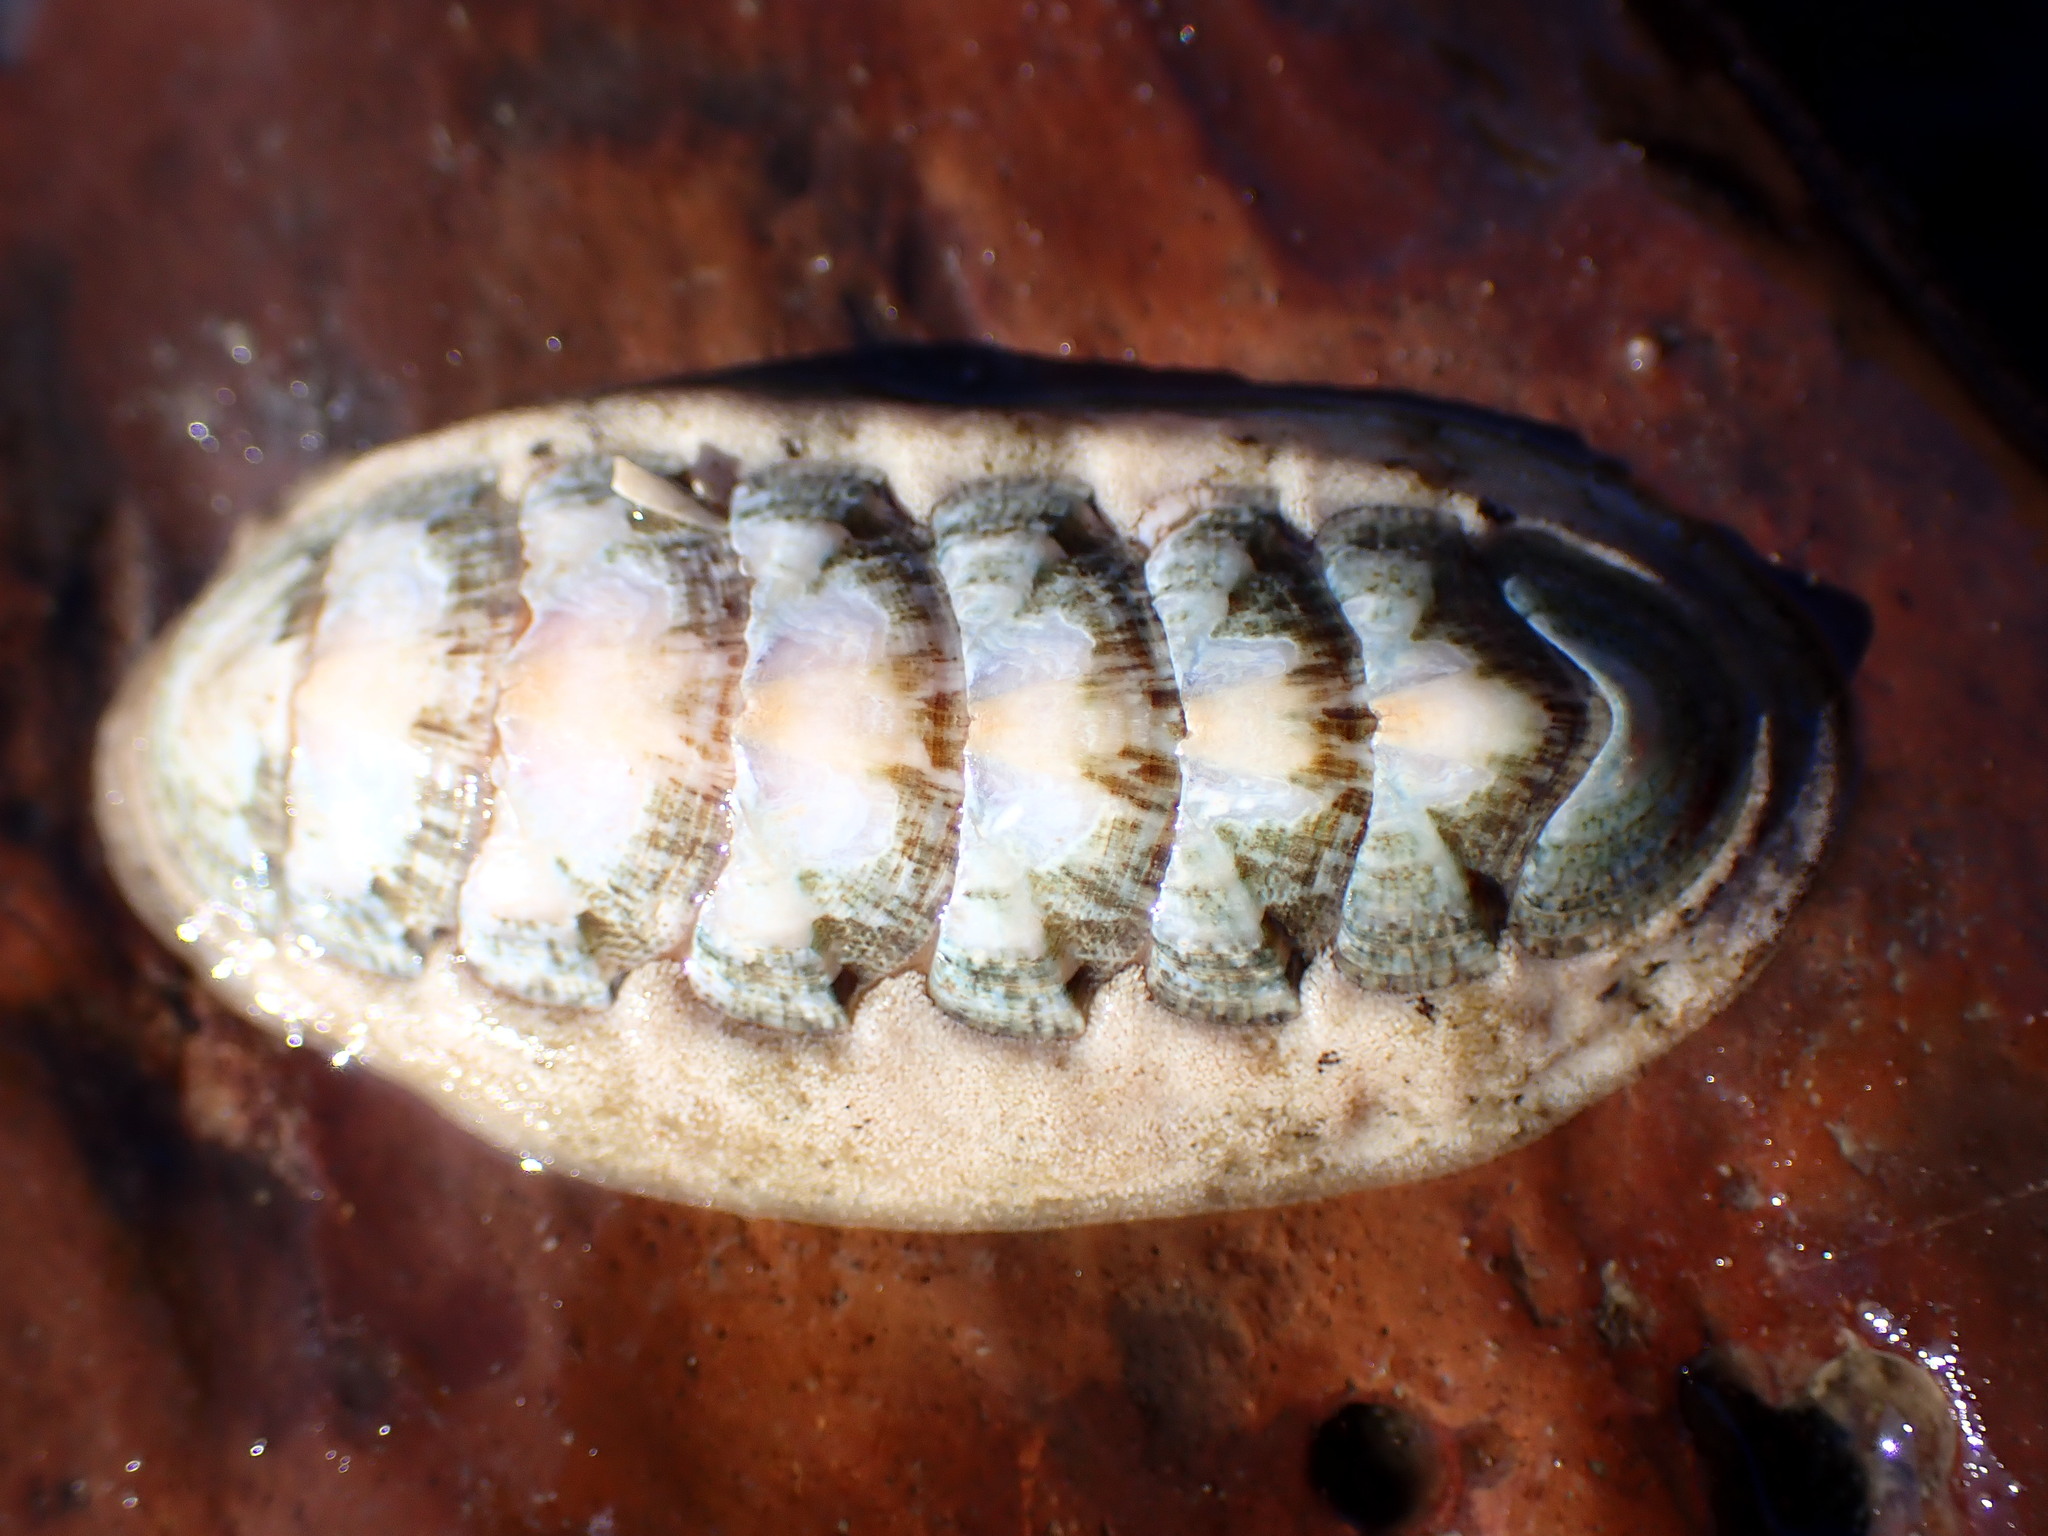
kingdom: Animalia
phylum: Mollusca
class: Polyplacophora
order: Chitonida
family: Ischnochitonidae
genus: Stenoplax
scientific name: Stenoplax heathiana
